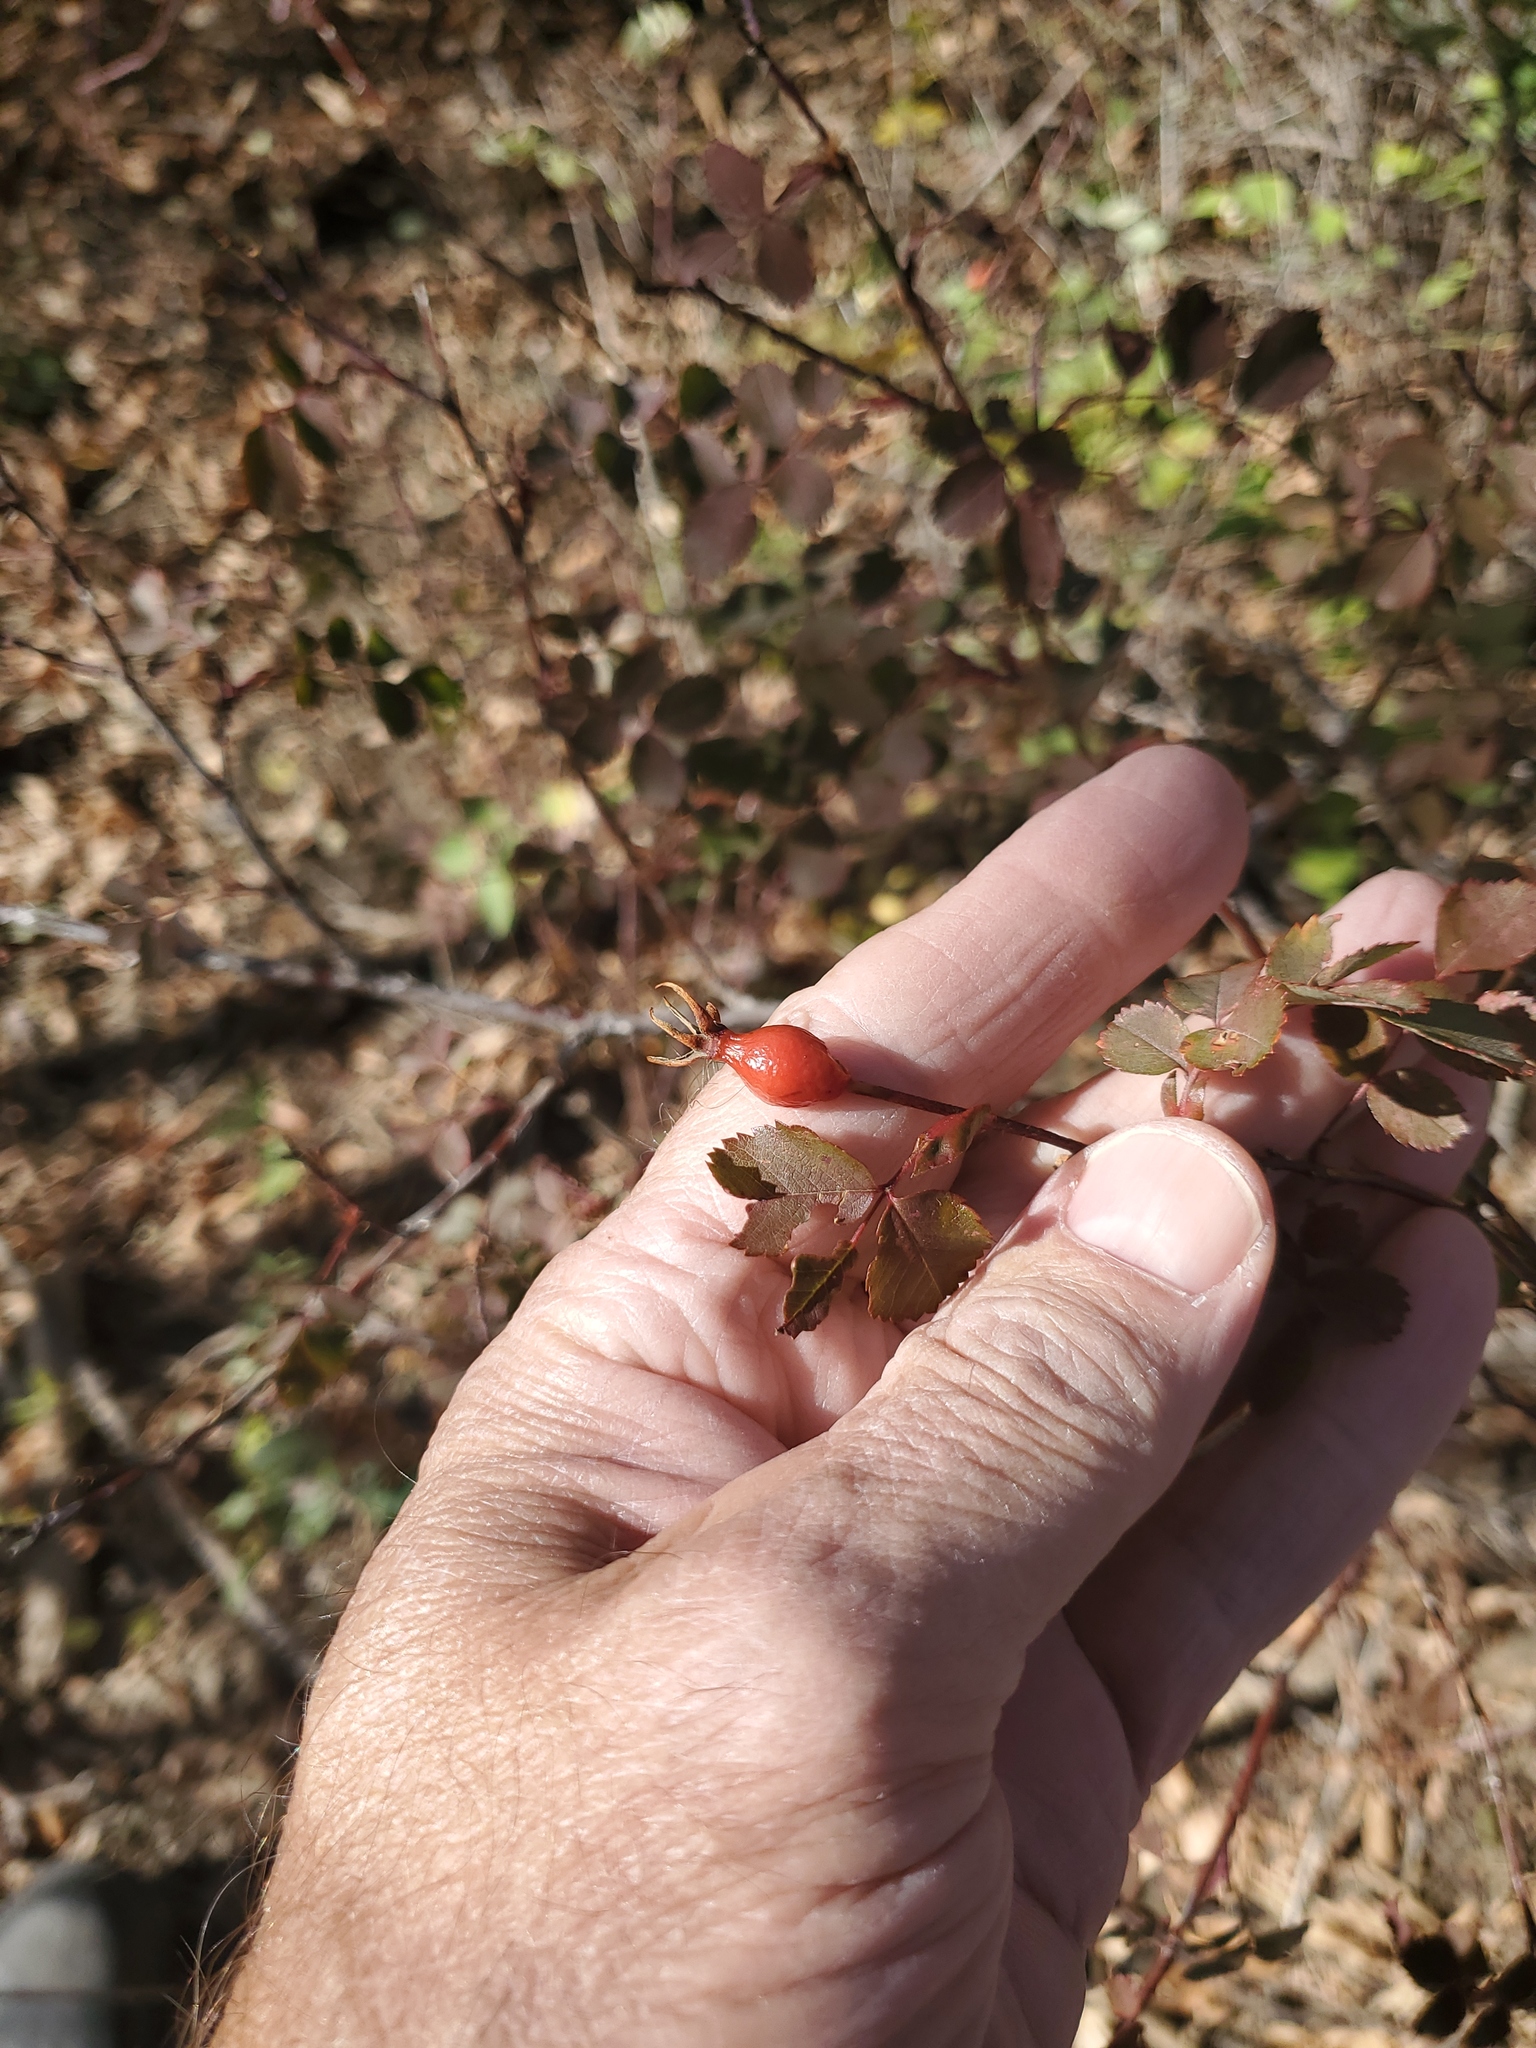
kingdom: Plantae
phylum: Tracheophyta
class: Magnoliopsida
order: Rosales
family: Rosaceae
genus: Rosa
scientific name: Rosa woodsii
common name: Woods's rose
